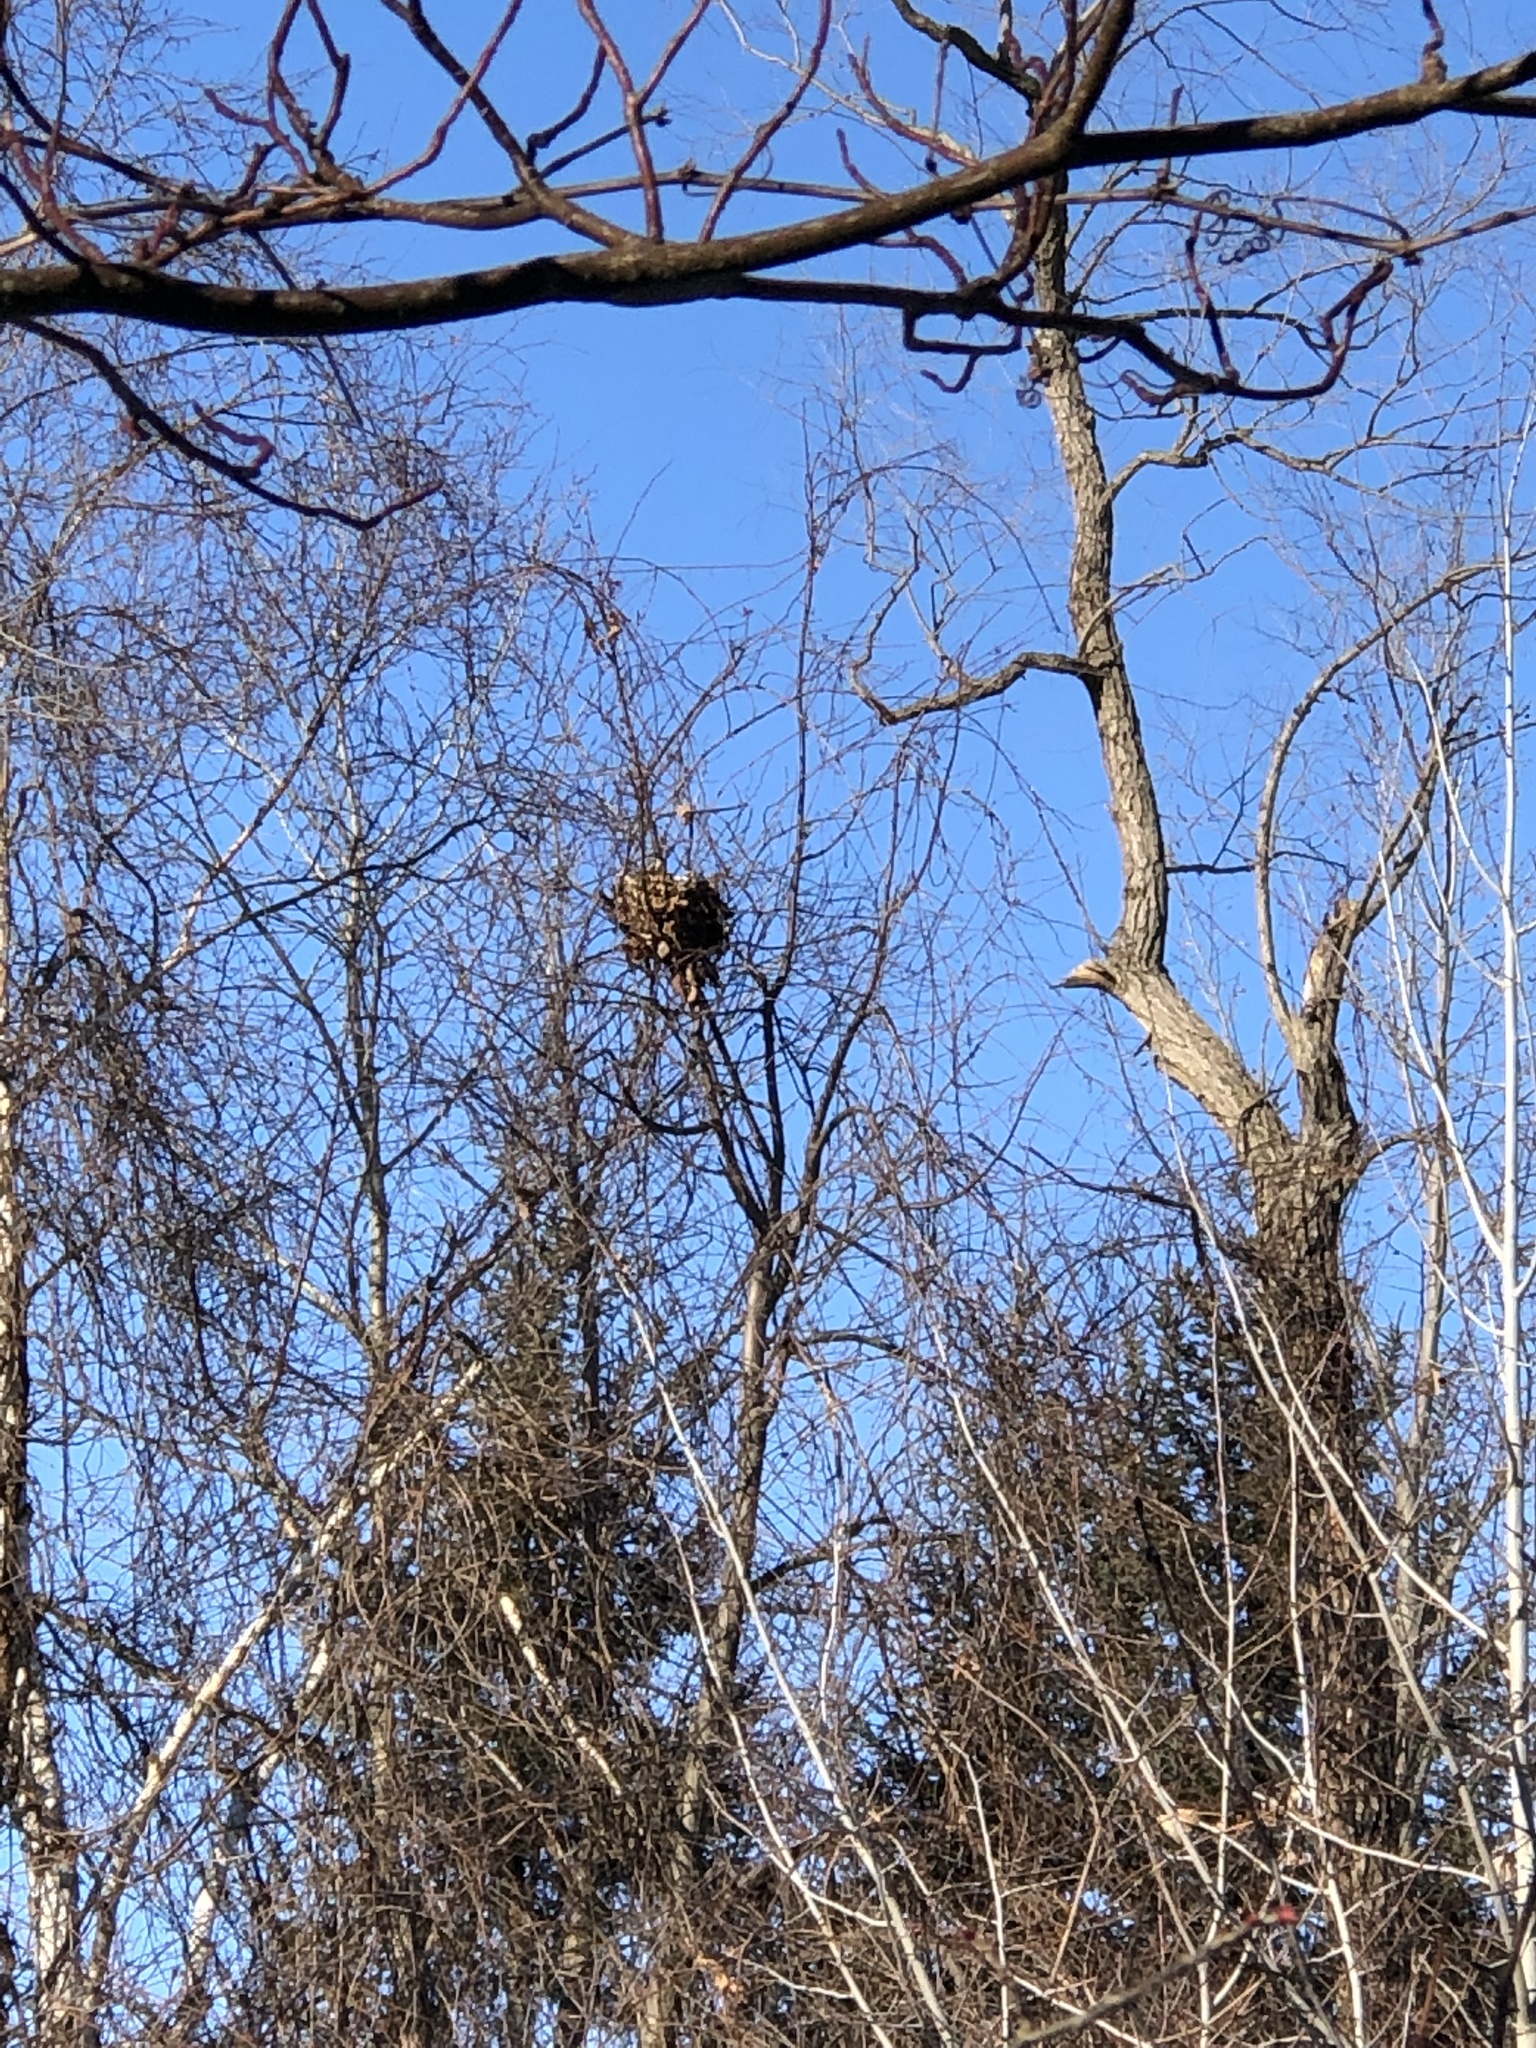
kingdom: Animalia
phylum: Chordata
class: Mammalia
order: Rodentia
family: Sciuridae
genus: Sciurus
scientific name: Sciurus carolinensis
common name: Eastern gray squirrel
